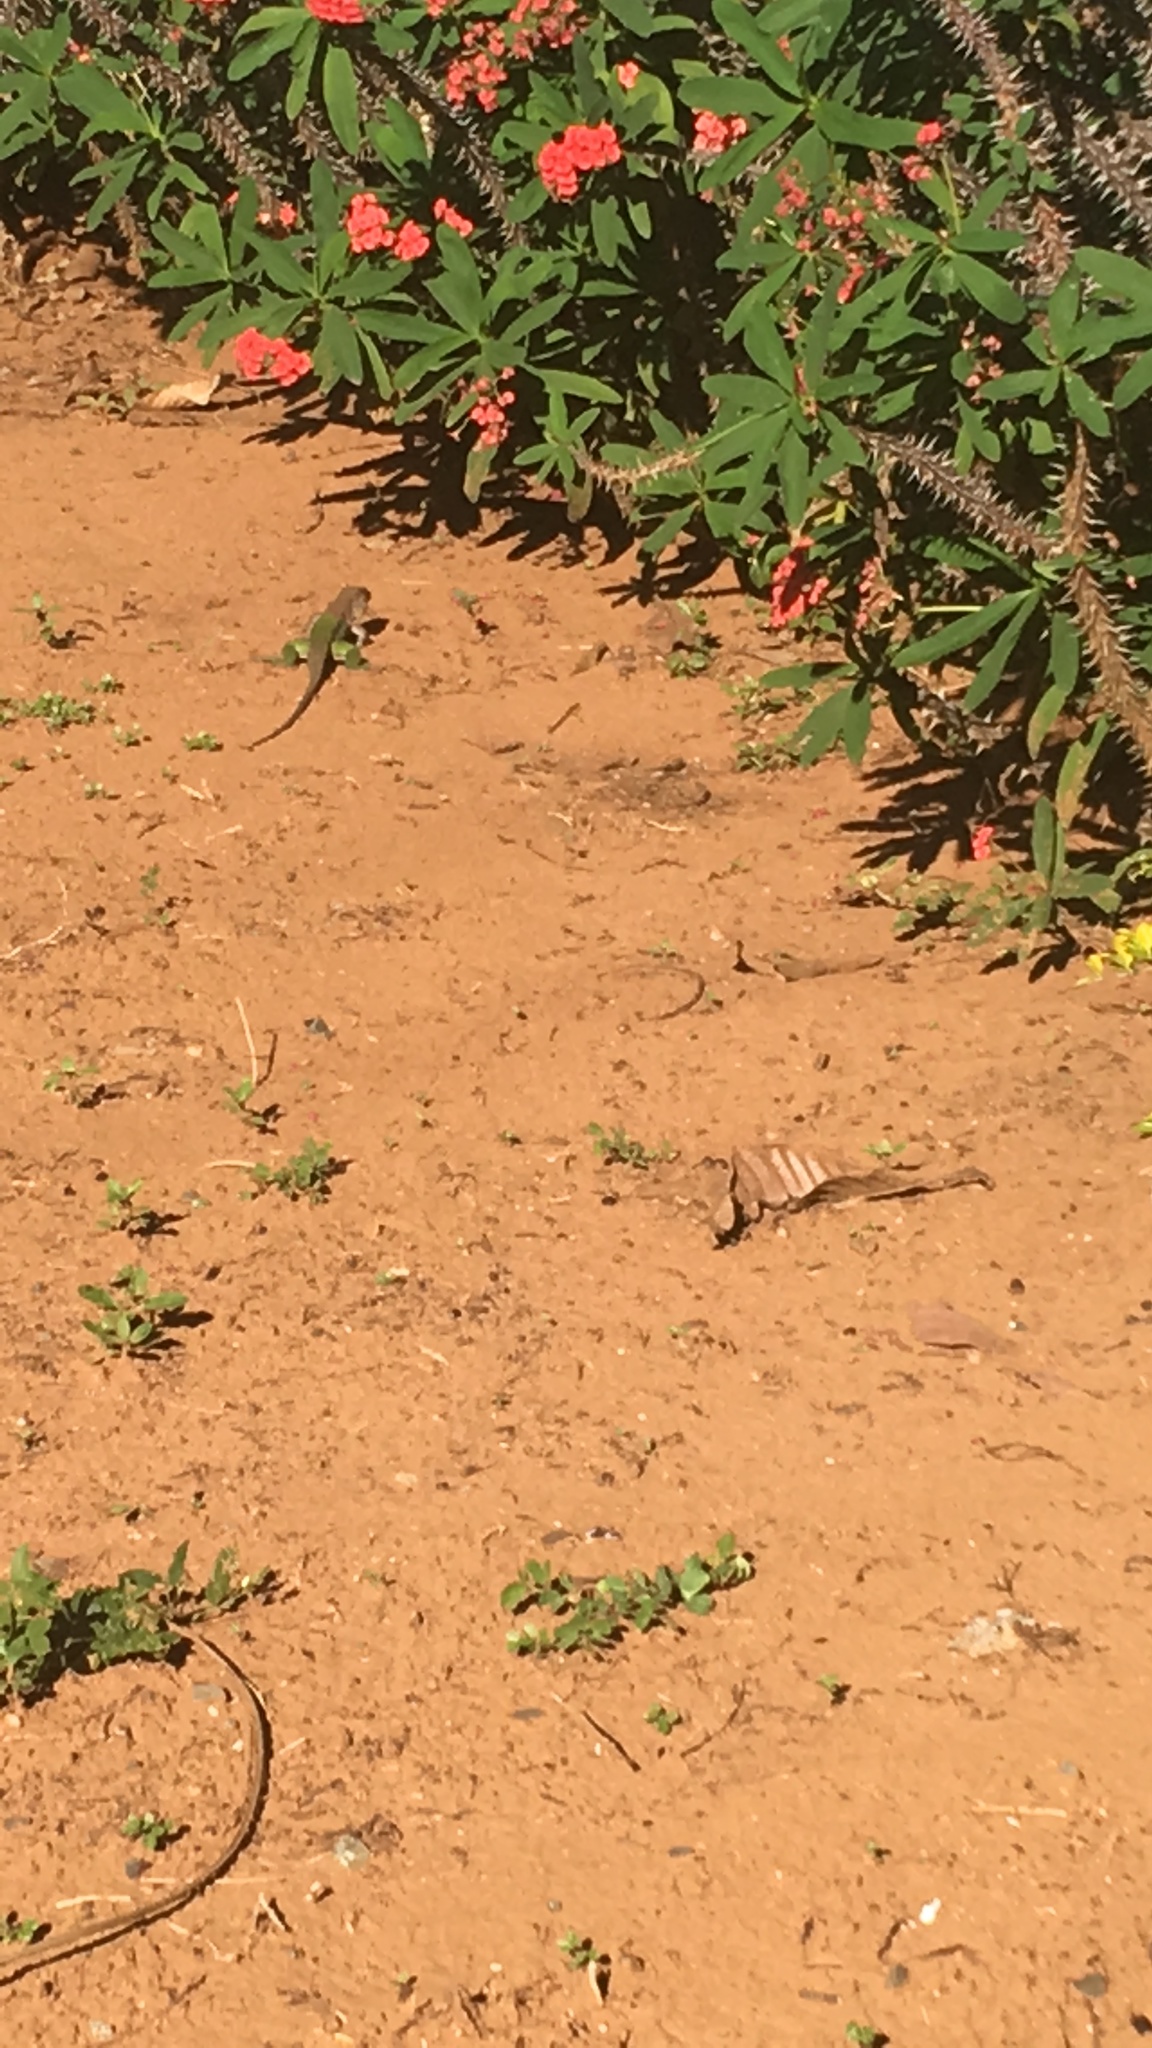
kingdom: Animalia
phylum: Chordata
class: Squamata
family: Teiidae
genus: Ameiva
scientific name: Ameiva ameiva
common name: Giant ameiva
